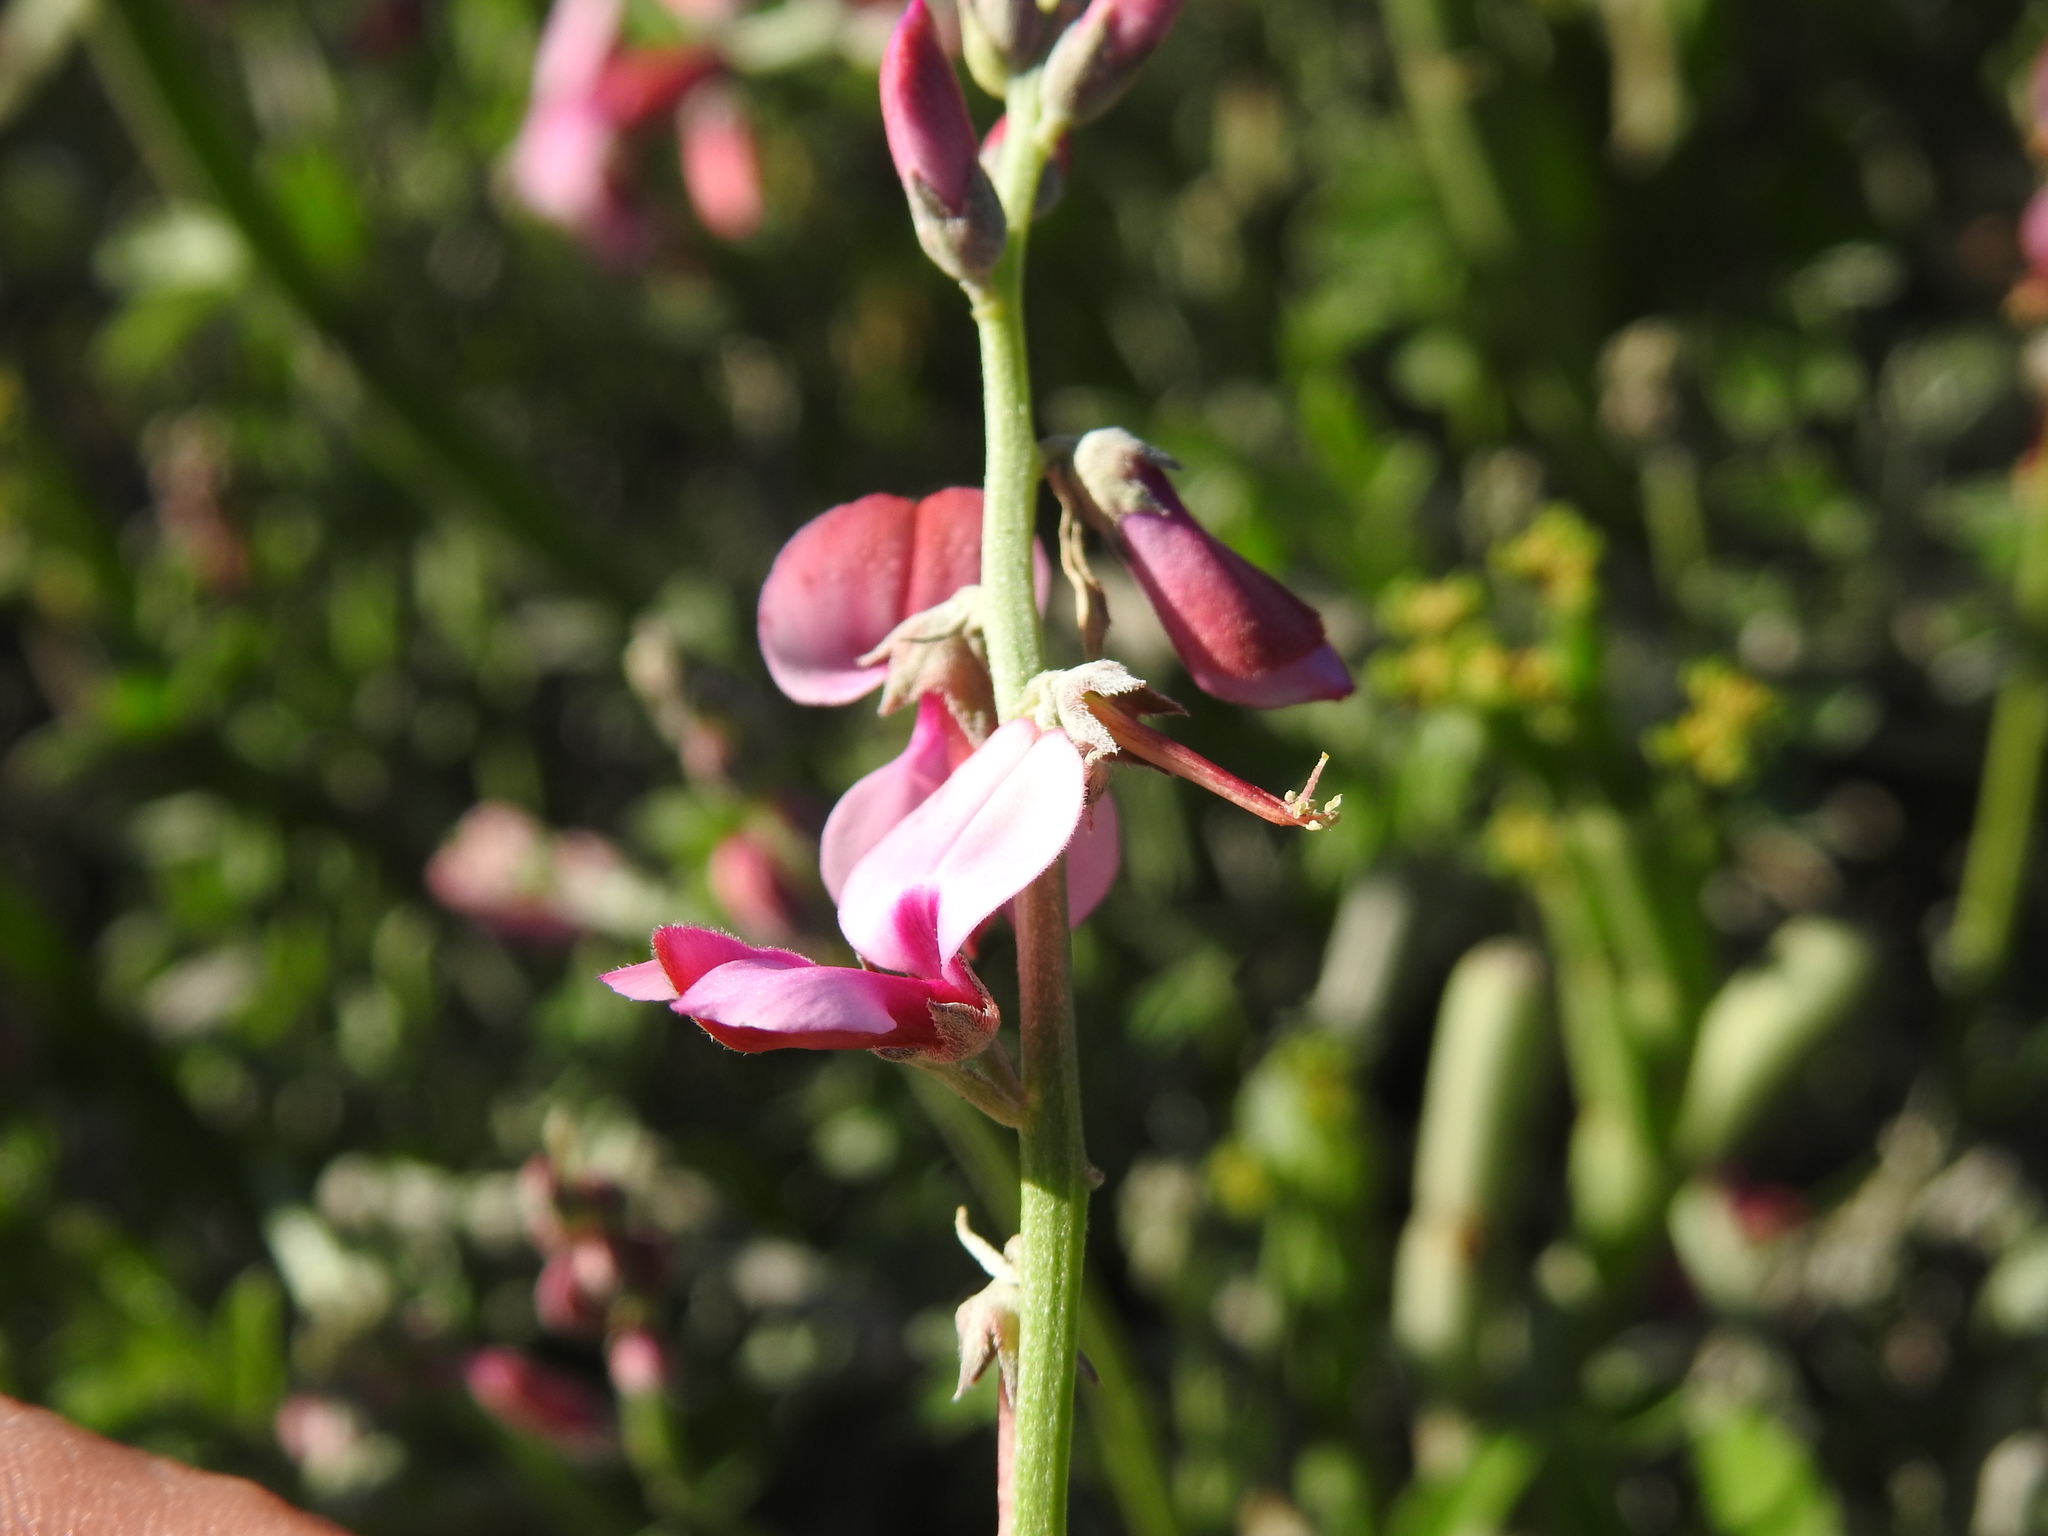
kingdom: Plantae
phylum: Tracheophyta
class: Magnoliopsida
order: Fabales
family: Fabaceae
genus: Indigofera
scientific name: Indigofera
